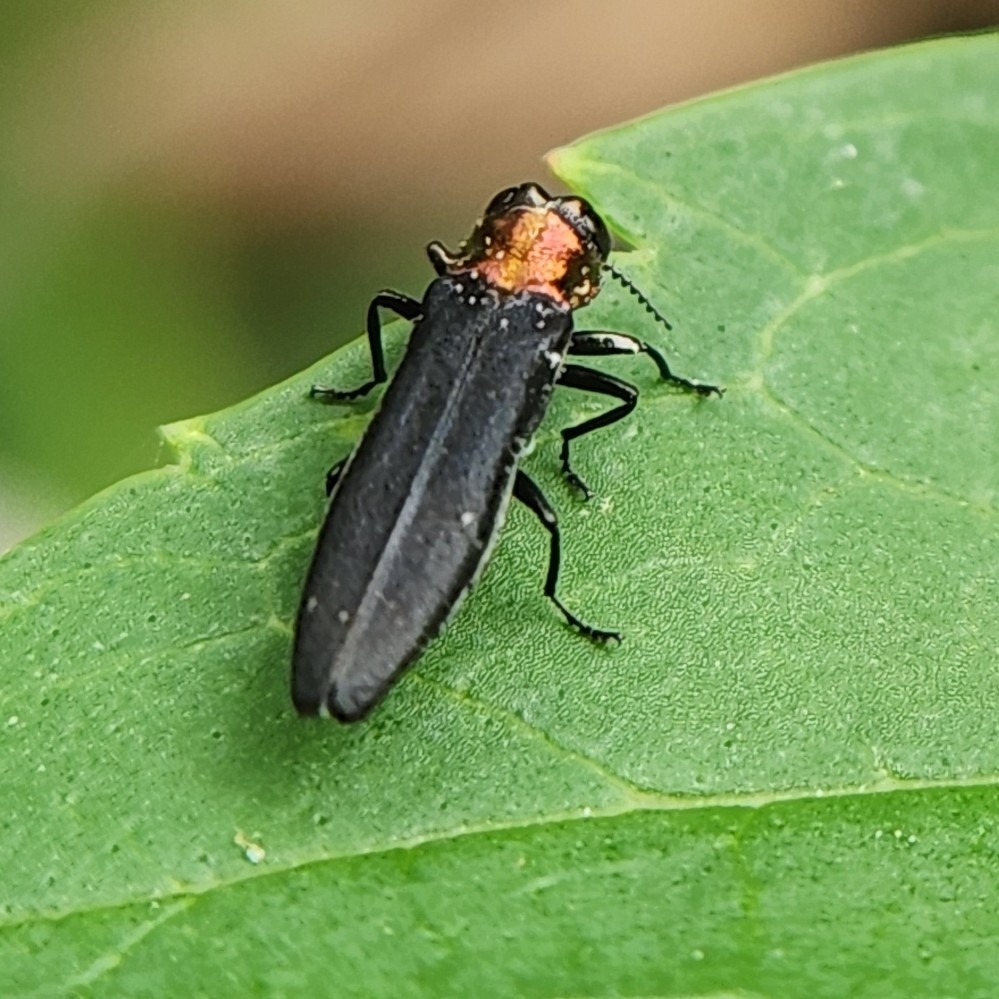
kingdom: Animalia
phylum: Arthropoda
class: Insecta
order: Coleoptera
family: Buprestidae
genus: Agrilus
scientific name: Agrilus ruficollis
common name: Red-necked cane borer beetle
